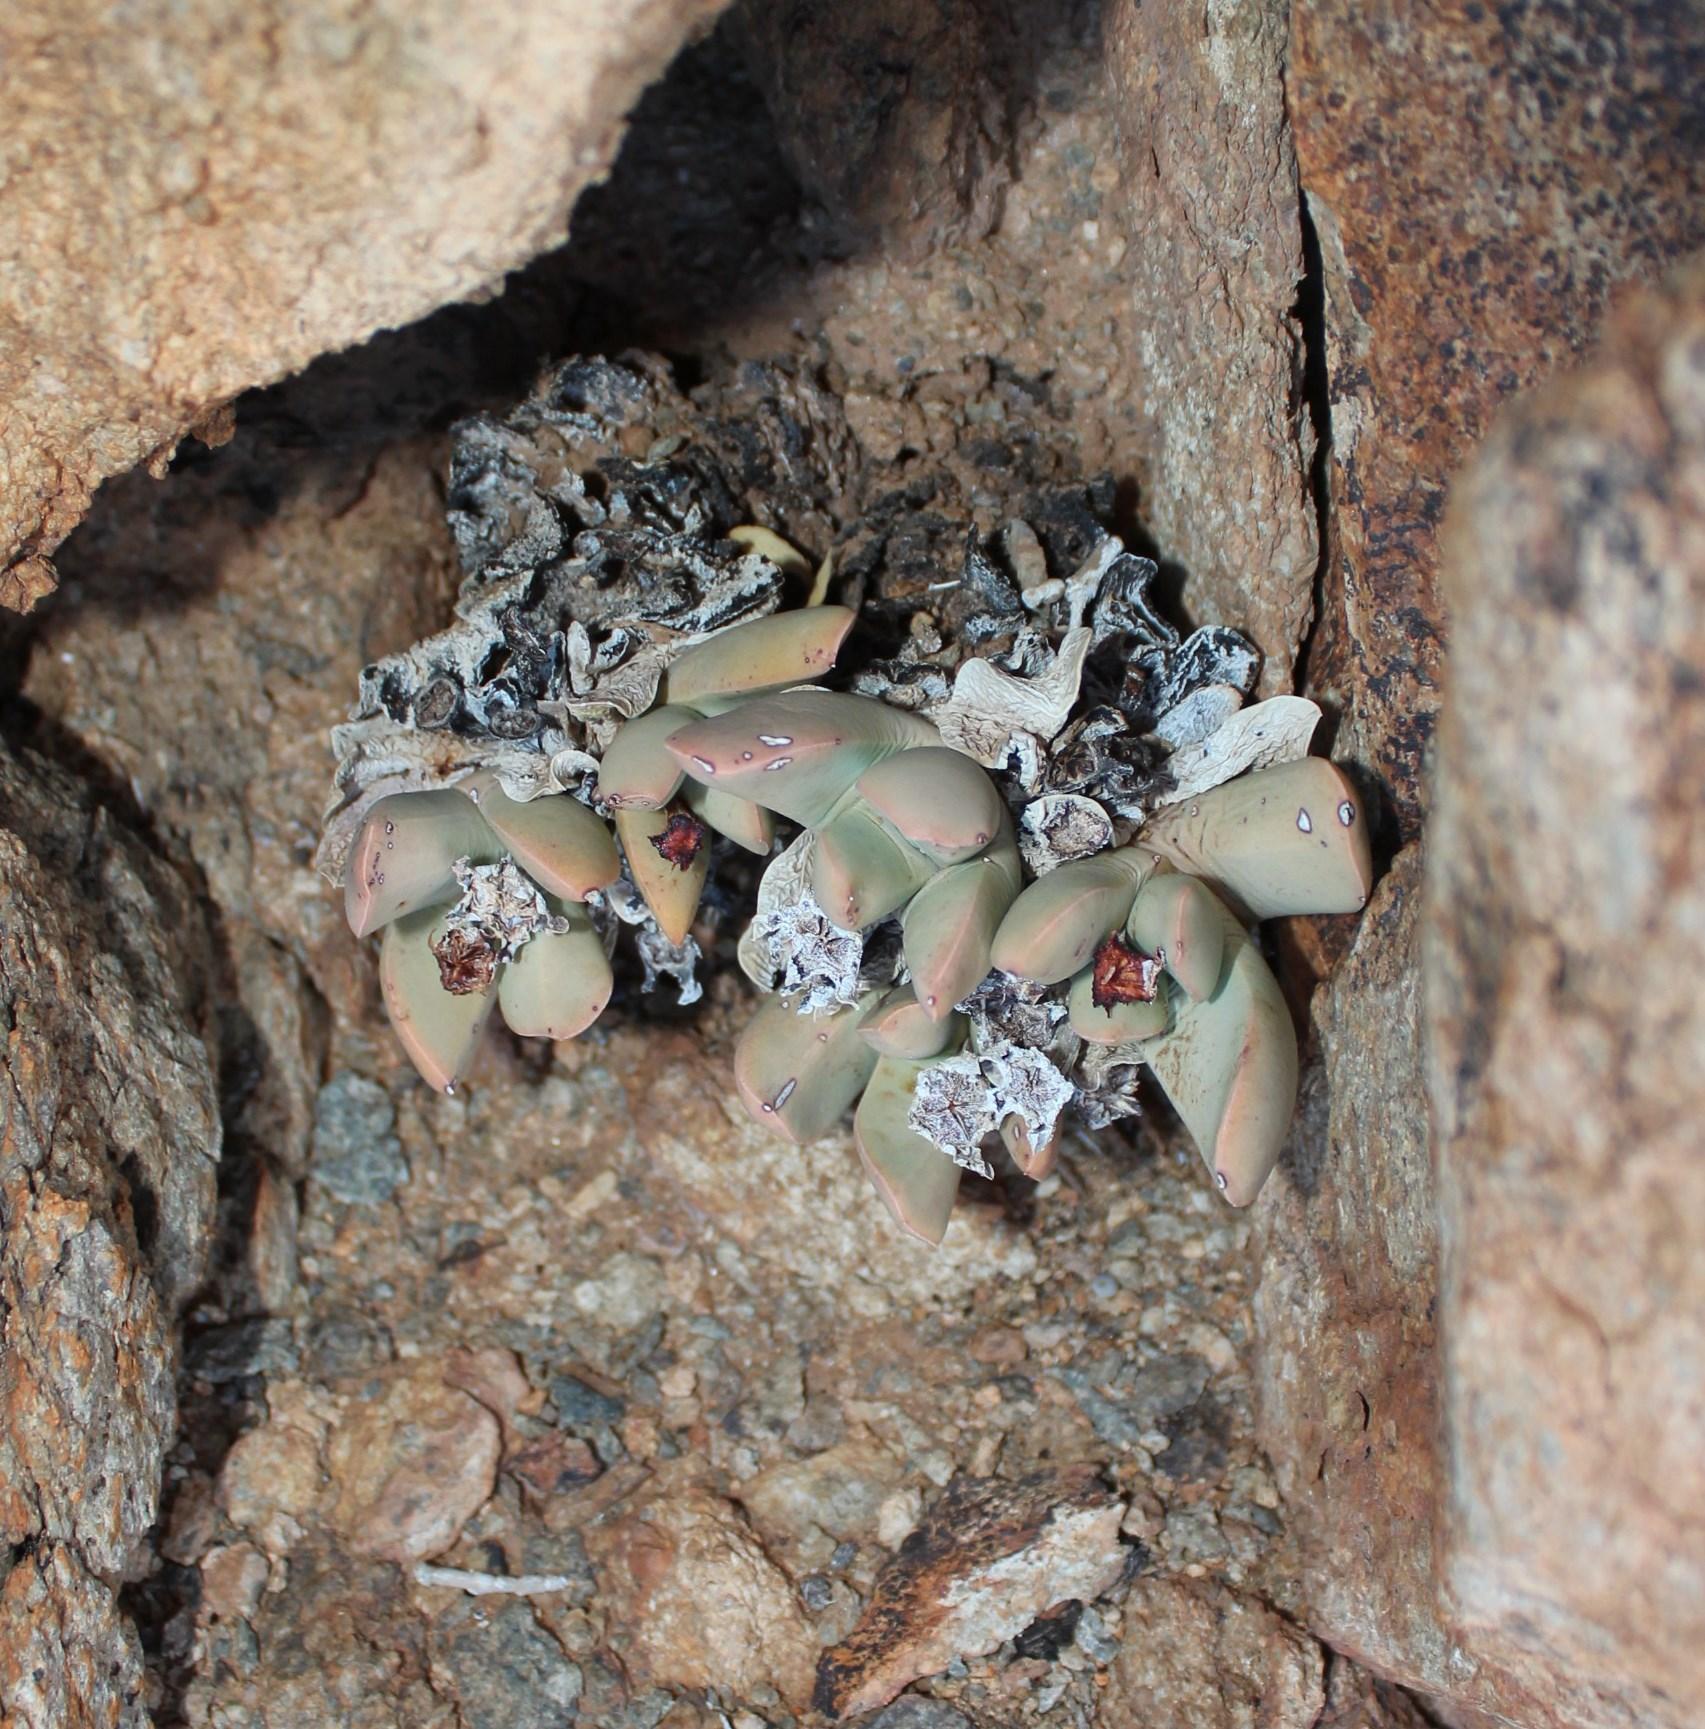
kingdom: Plantae
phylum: Tracheophyta
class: Magnoliopsida
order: Caryophyllales
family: Aizoaceae
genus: Schwantesia
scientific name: Schwantesia herrei
